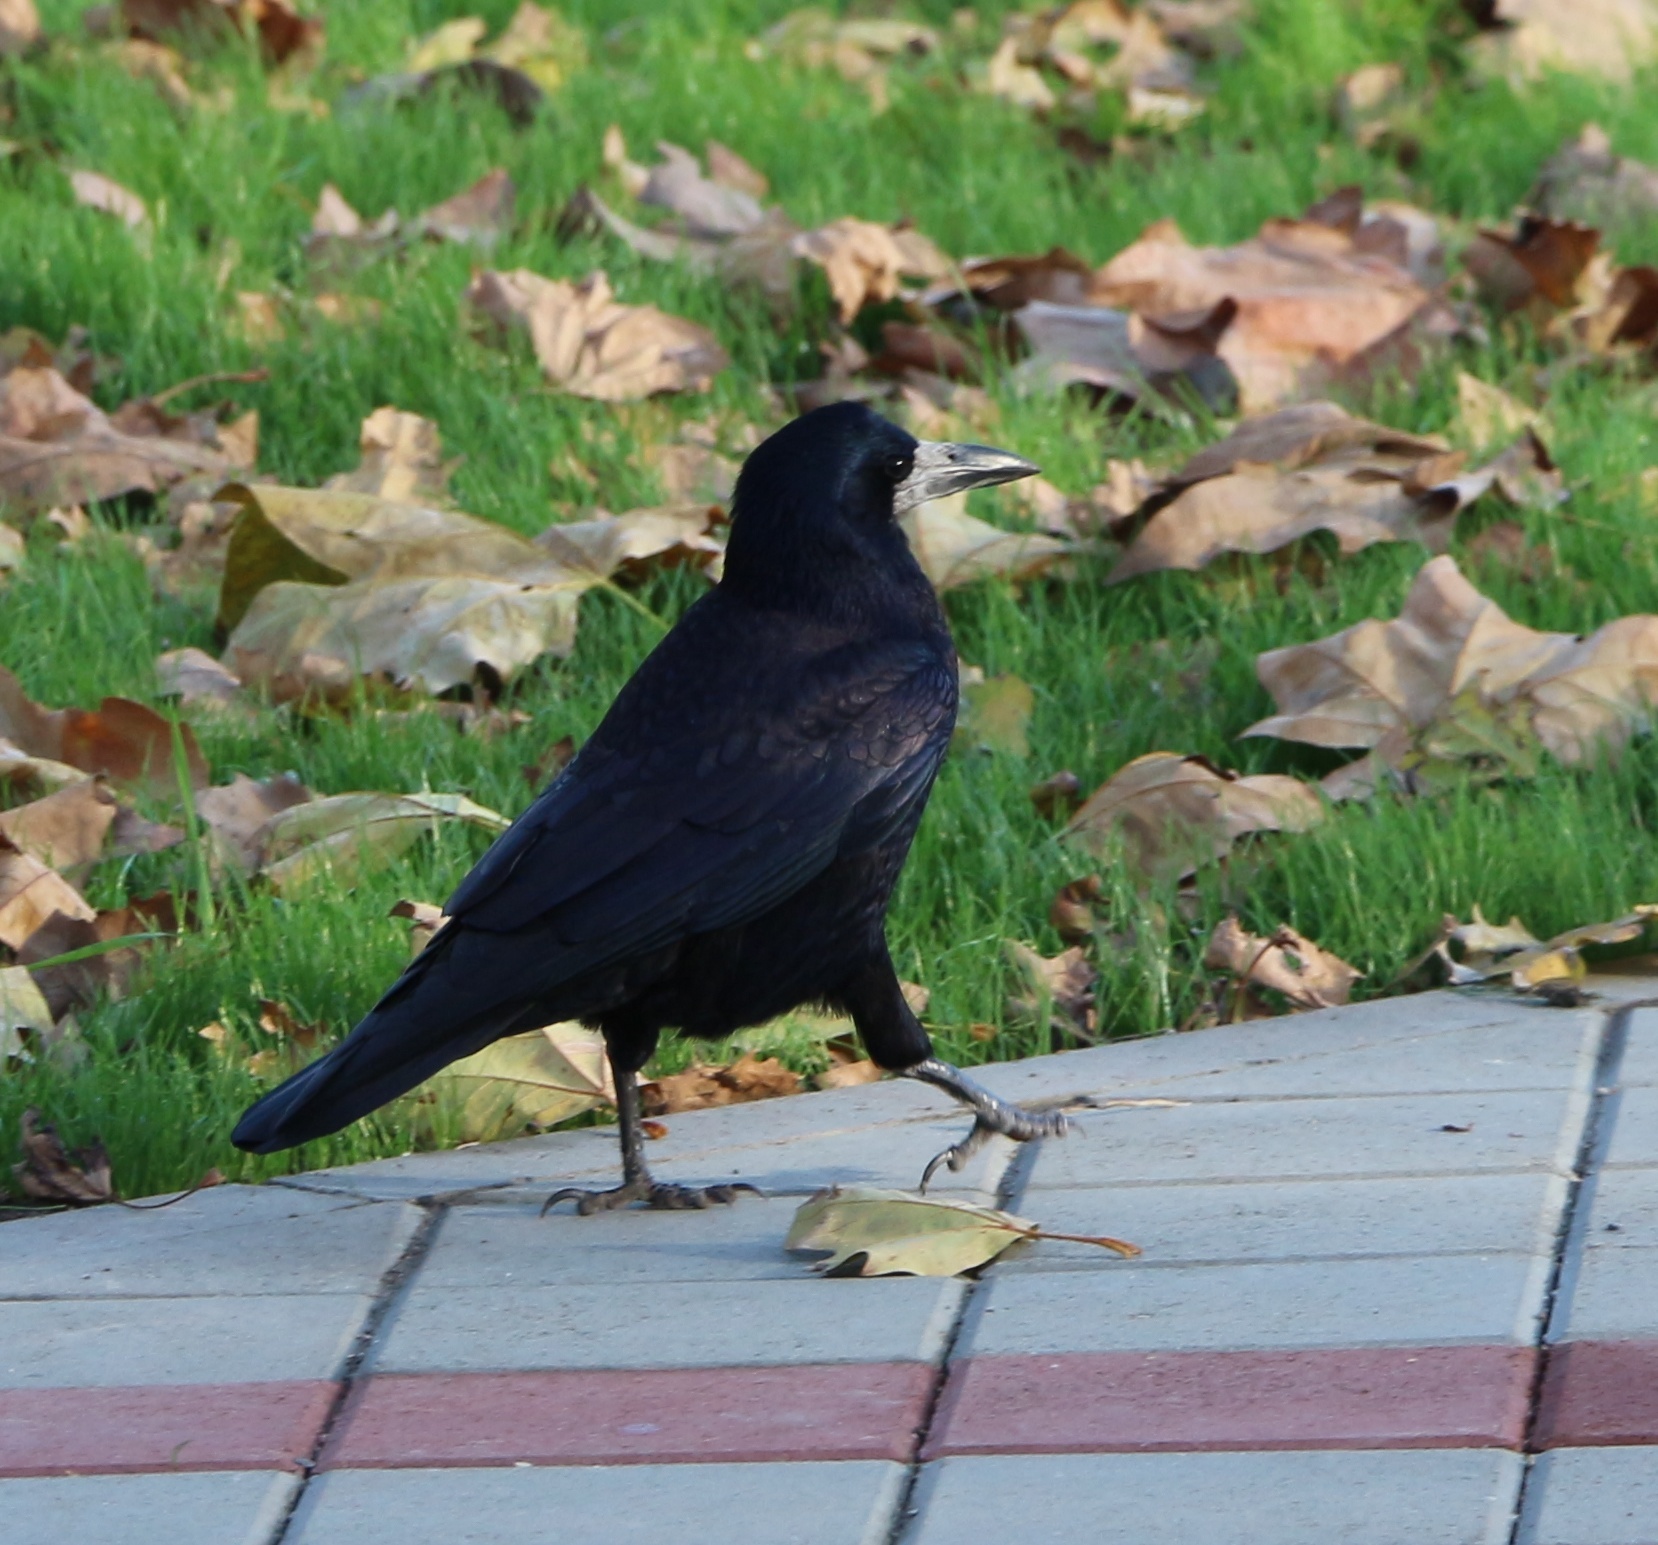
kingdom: Animalia
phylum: Chordata
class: Aves
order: Passeriformes
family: Corvidae
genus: Corvus
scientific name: Corvus frugilegus
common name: Rook
